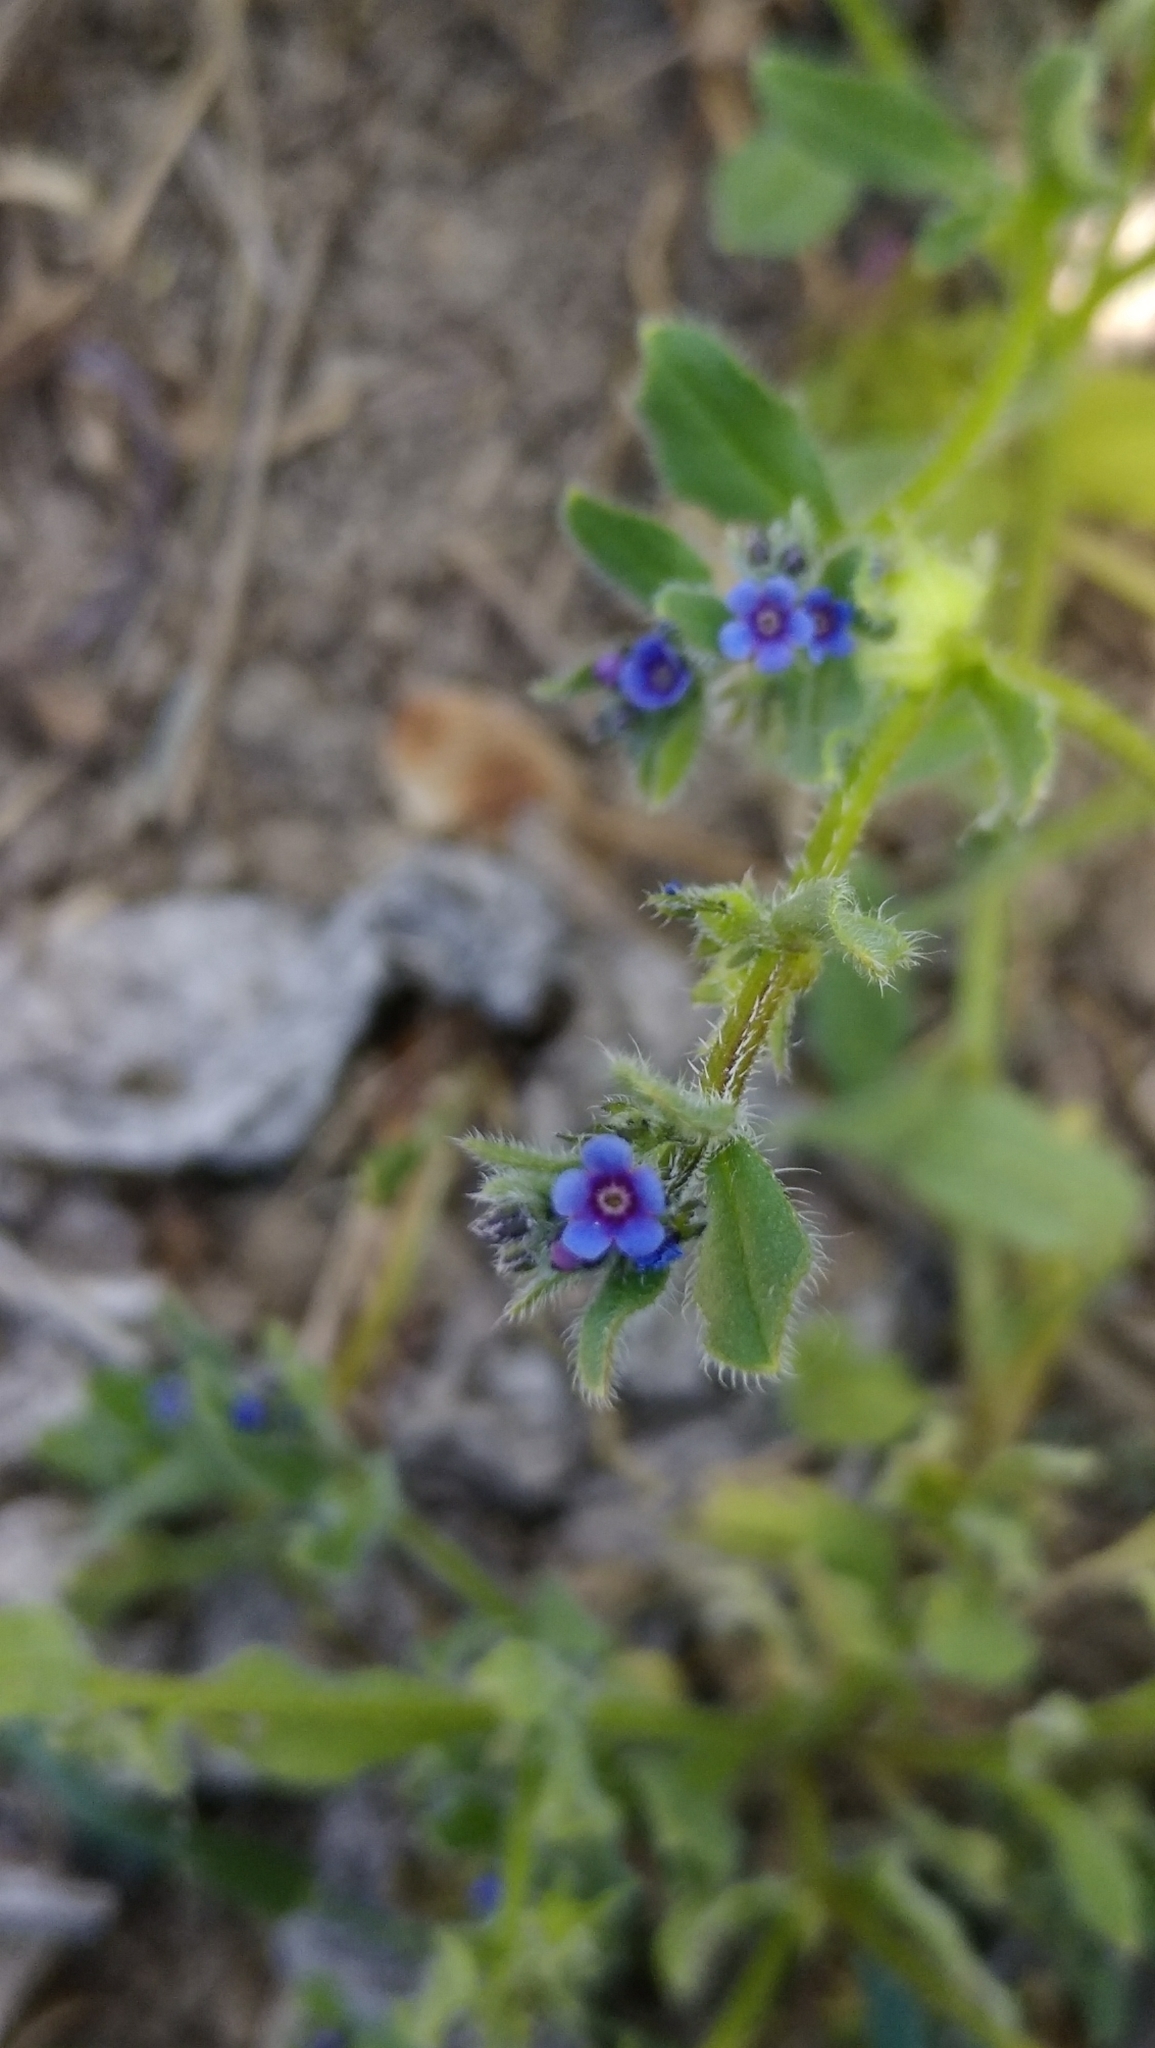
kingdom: Plantae
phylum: Tracheophyta
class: Magnoliopsida
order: Boraginales
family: Boraginaceae
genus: Asperugo
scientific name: Asperugo procumbens
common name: Madwort
